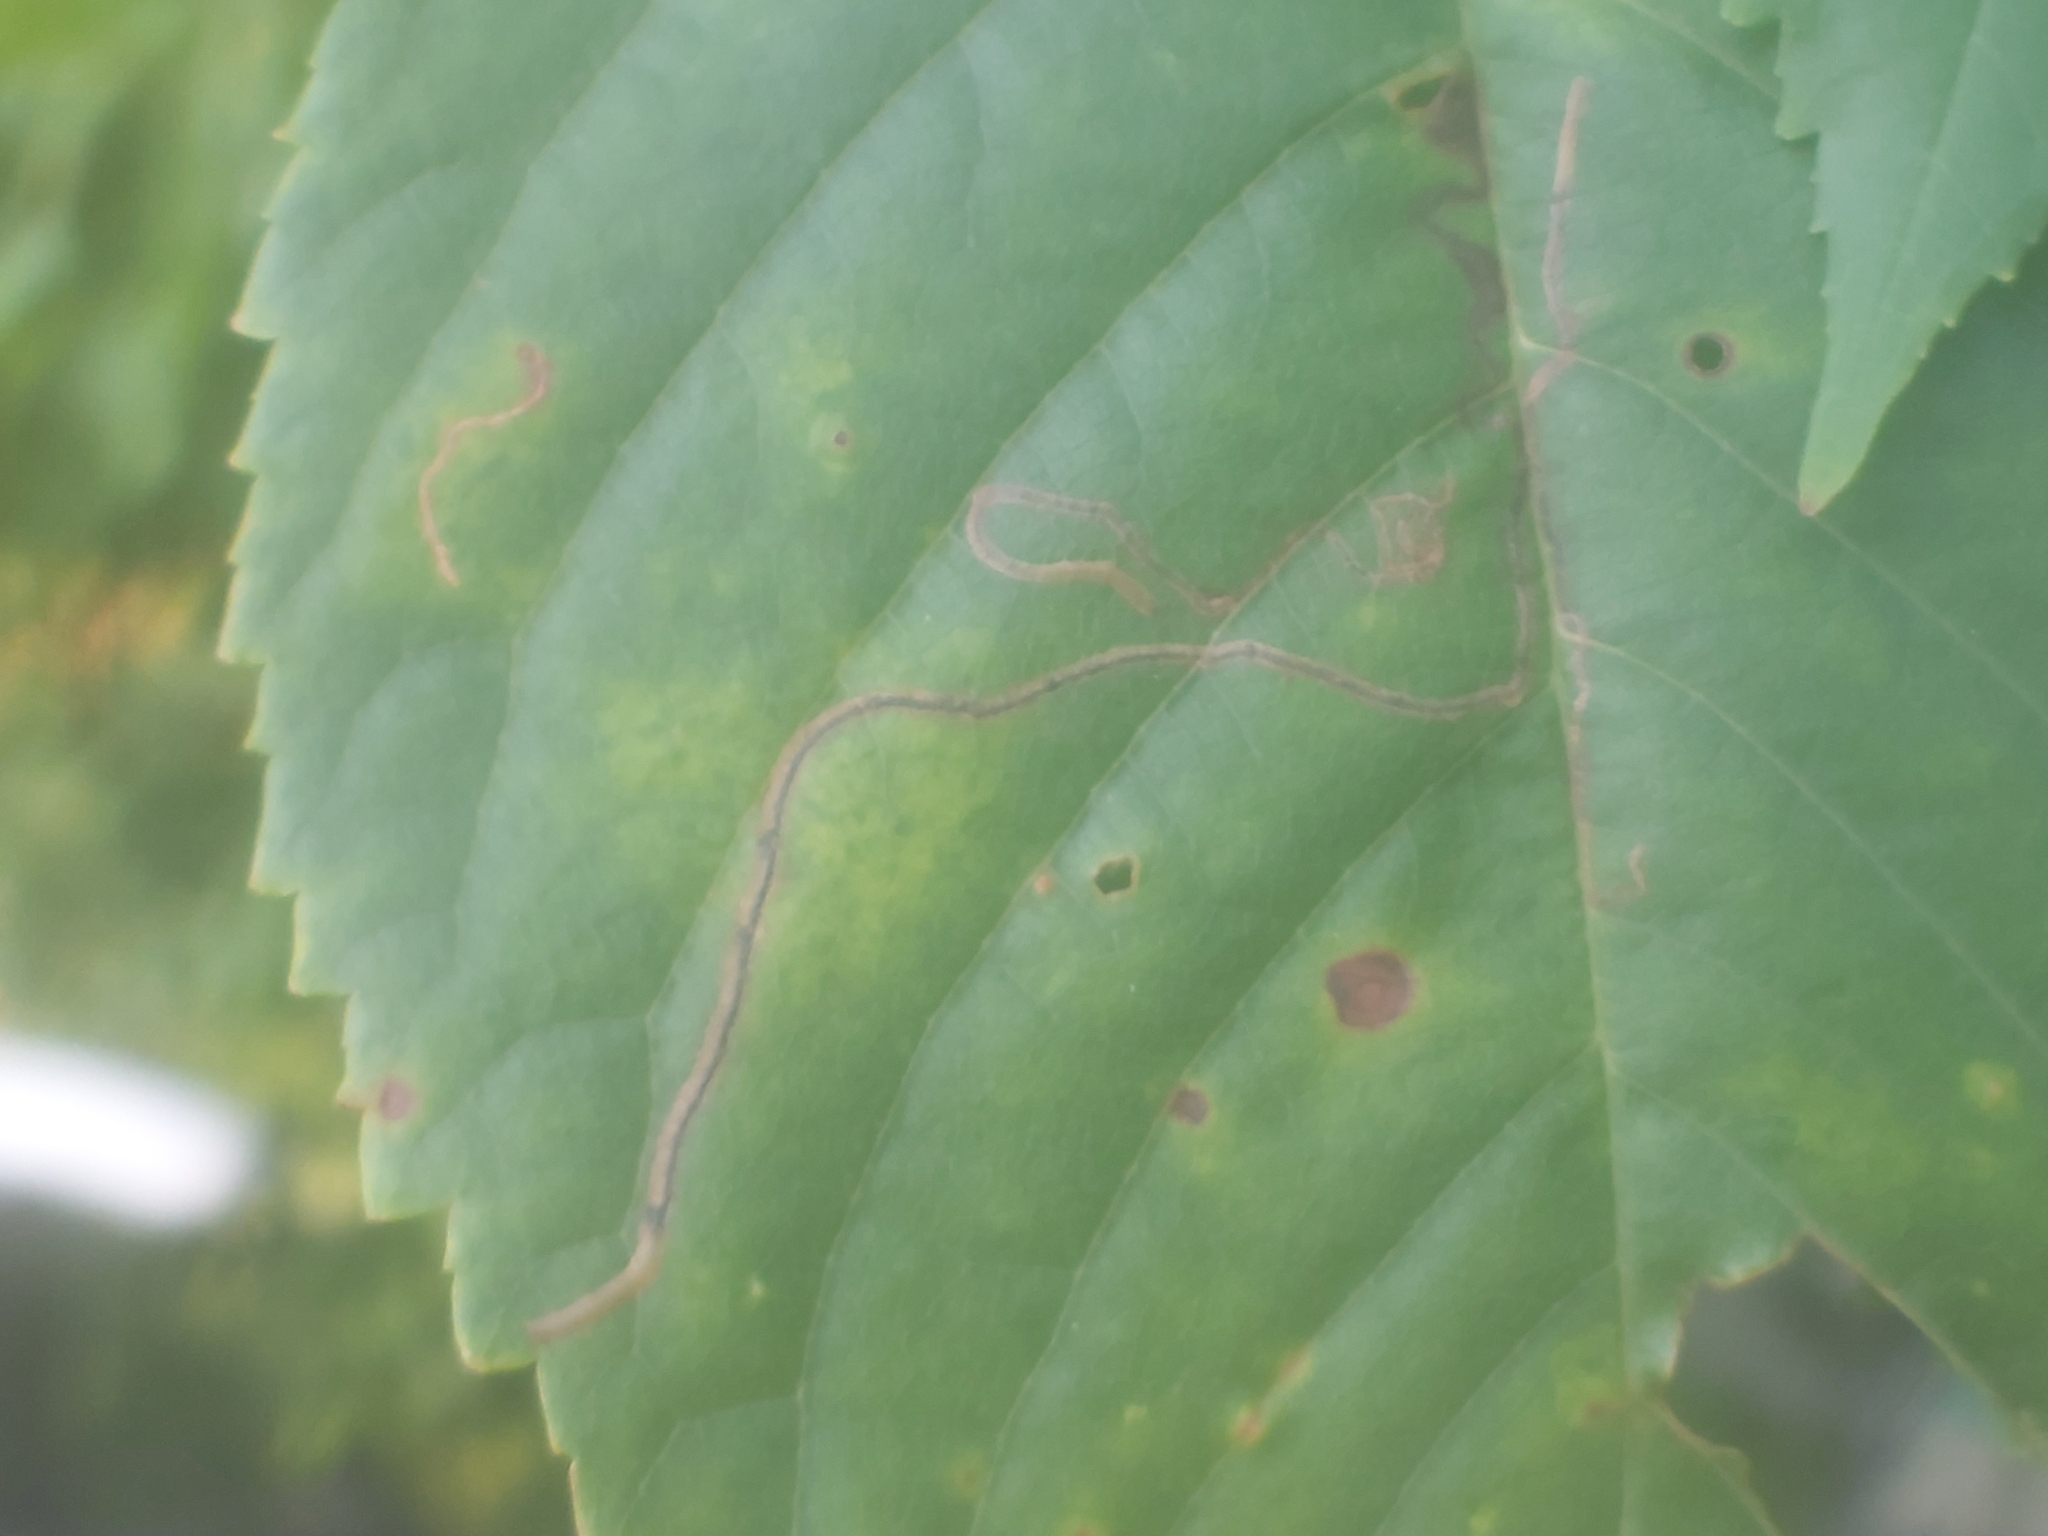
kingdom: Animalia
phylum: Arthropoda
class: Insecta
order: Lepidoptera
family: Lyonetiidae
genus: Lyonetia
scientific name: Lyonetia clerkella
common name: Apple leaf miner
